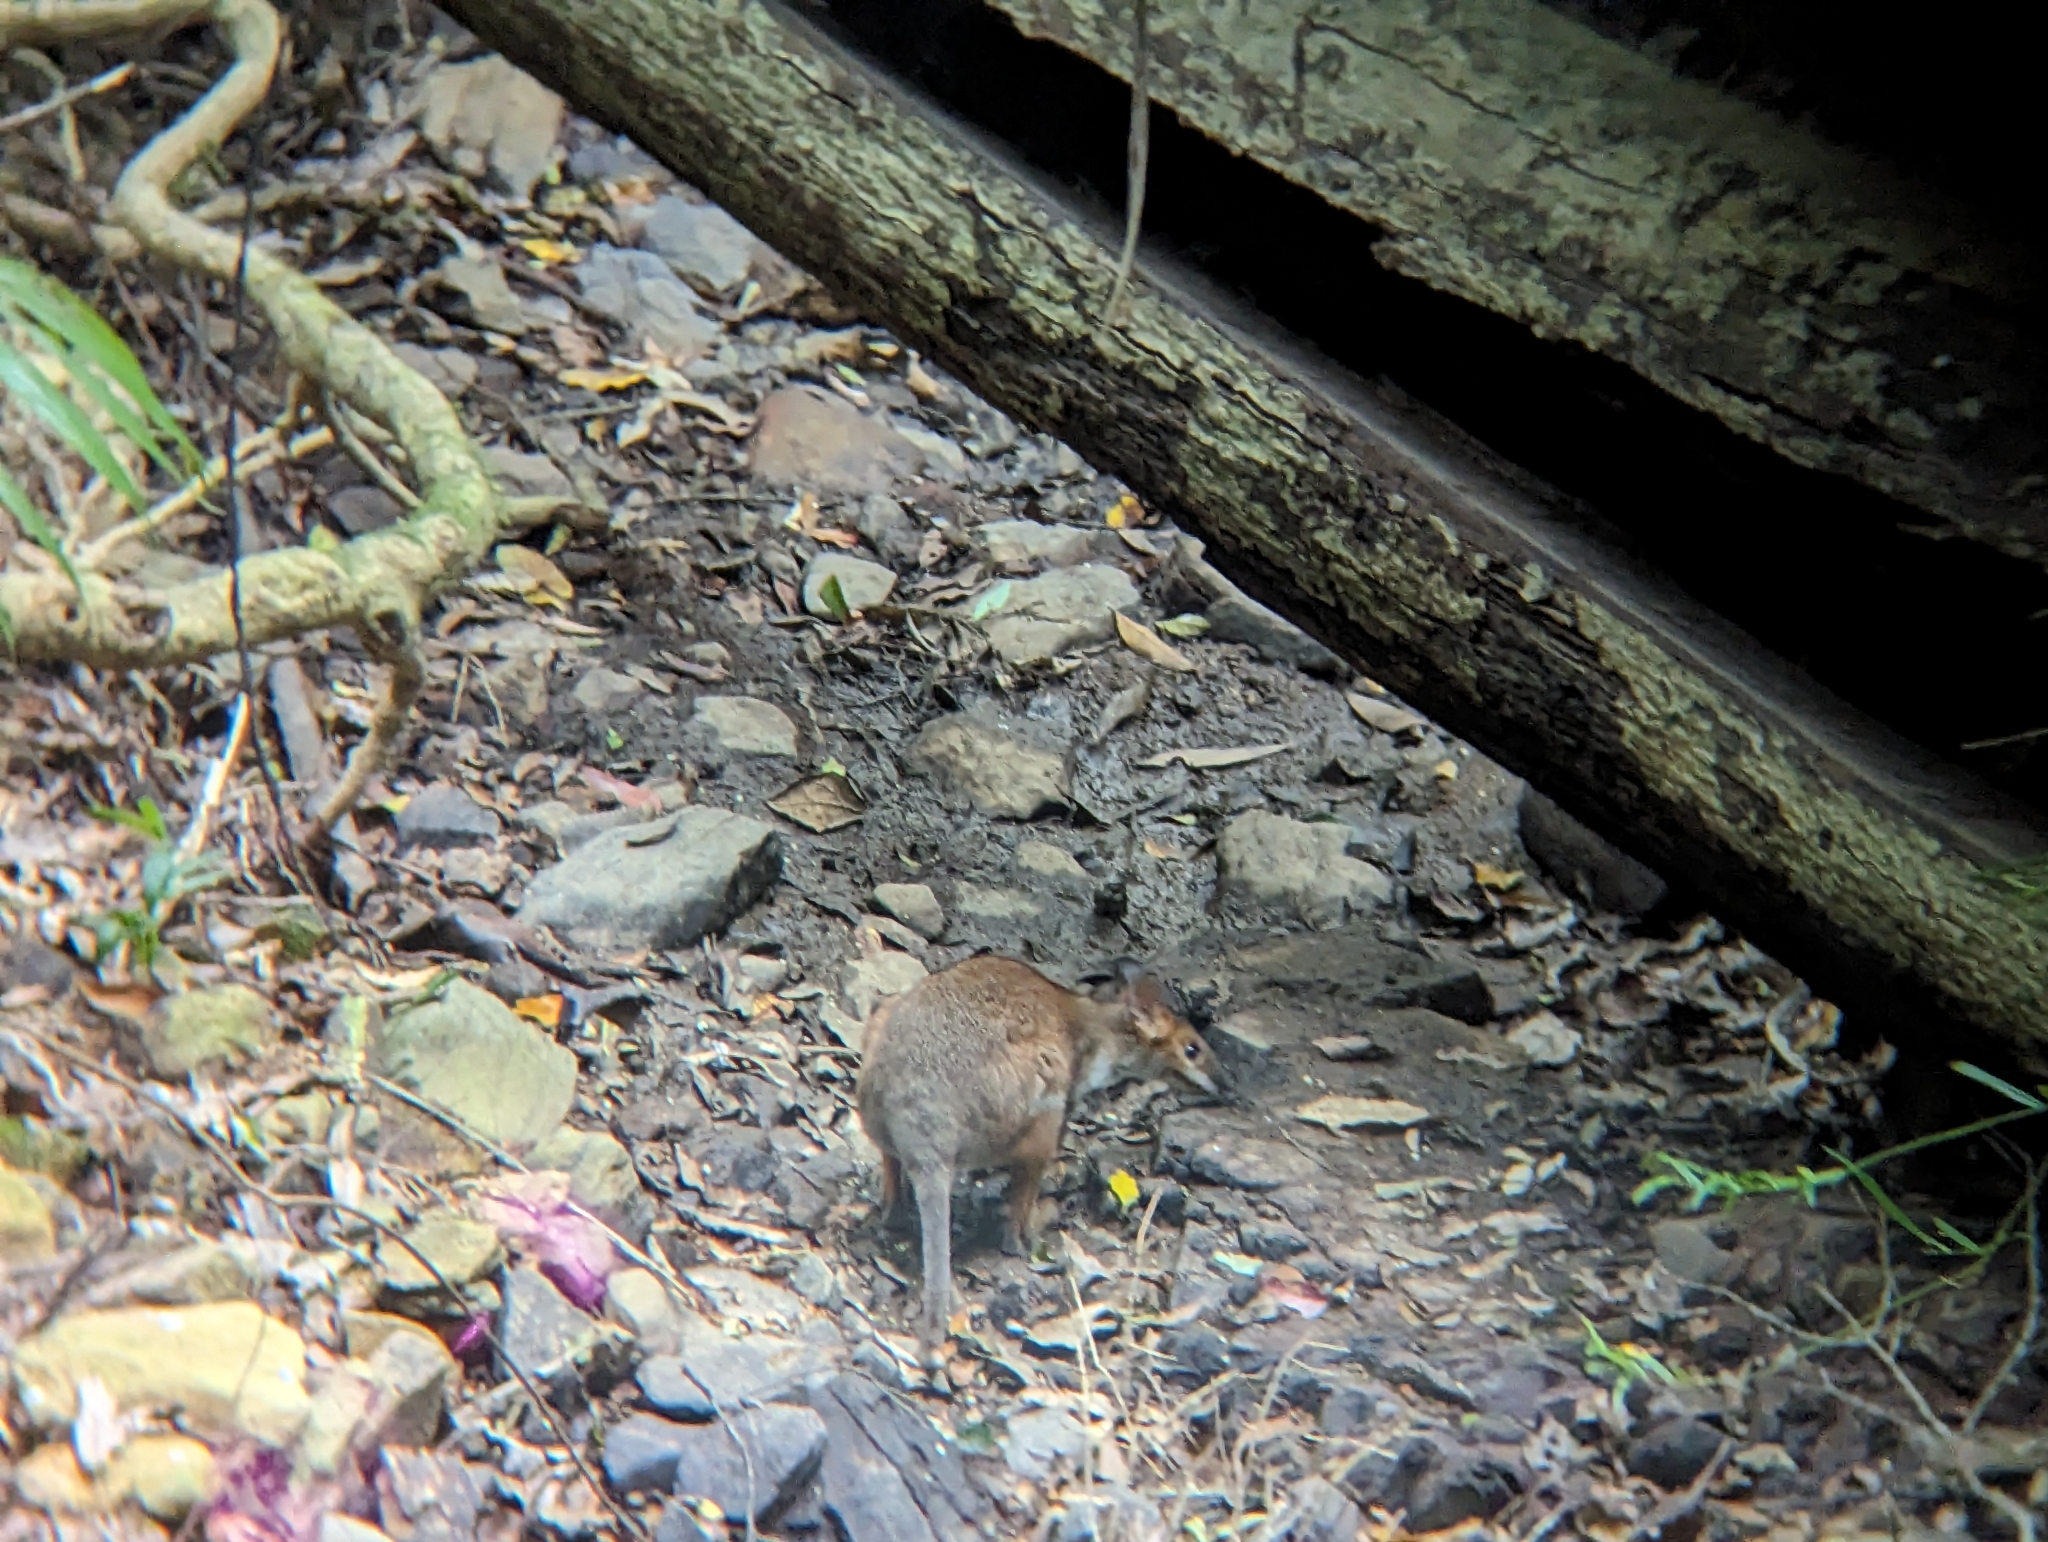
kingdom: Animalia
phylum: Chordata
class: Mammalia
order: Diprotodontia
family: Macropodidae
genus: Thylogale
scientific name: Thylogale stigmatica
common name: Red-legged pademelon
